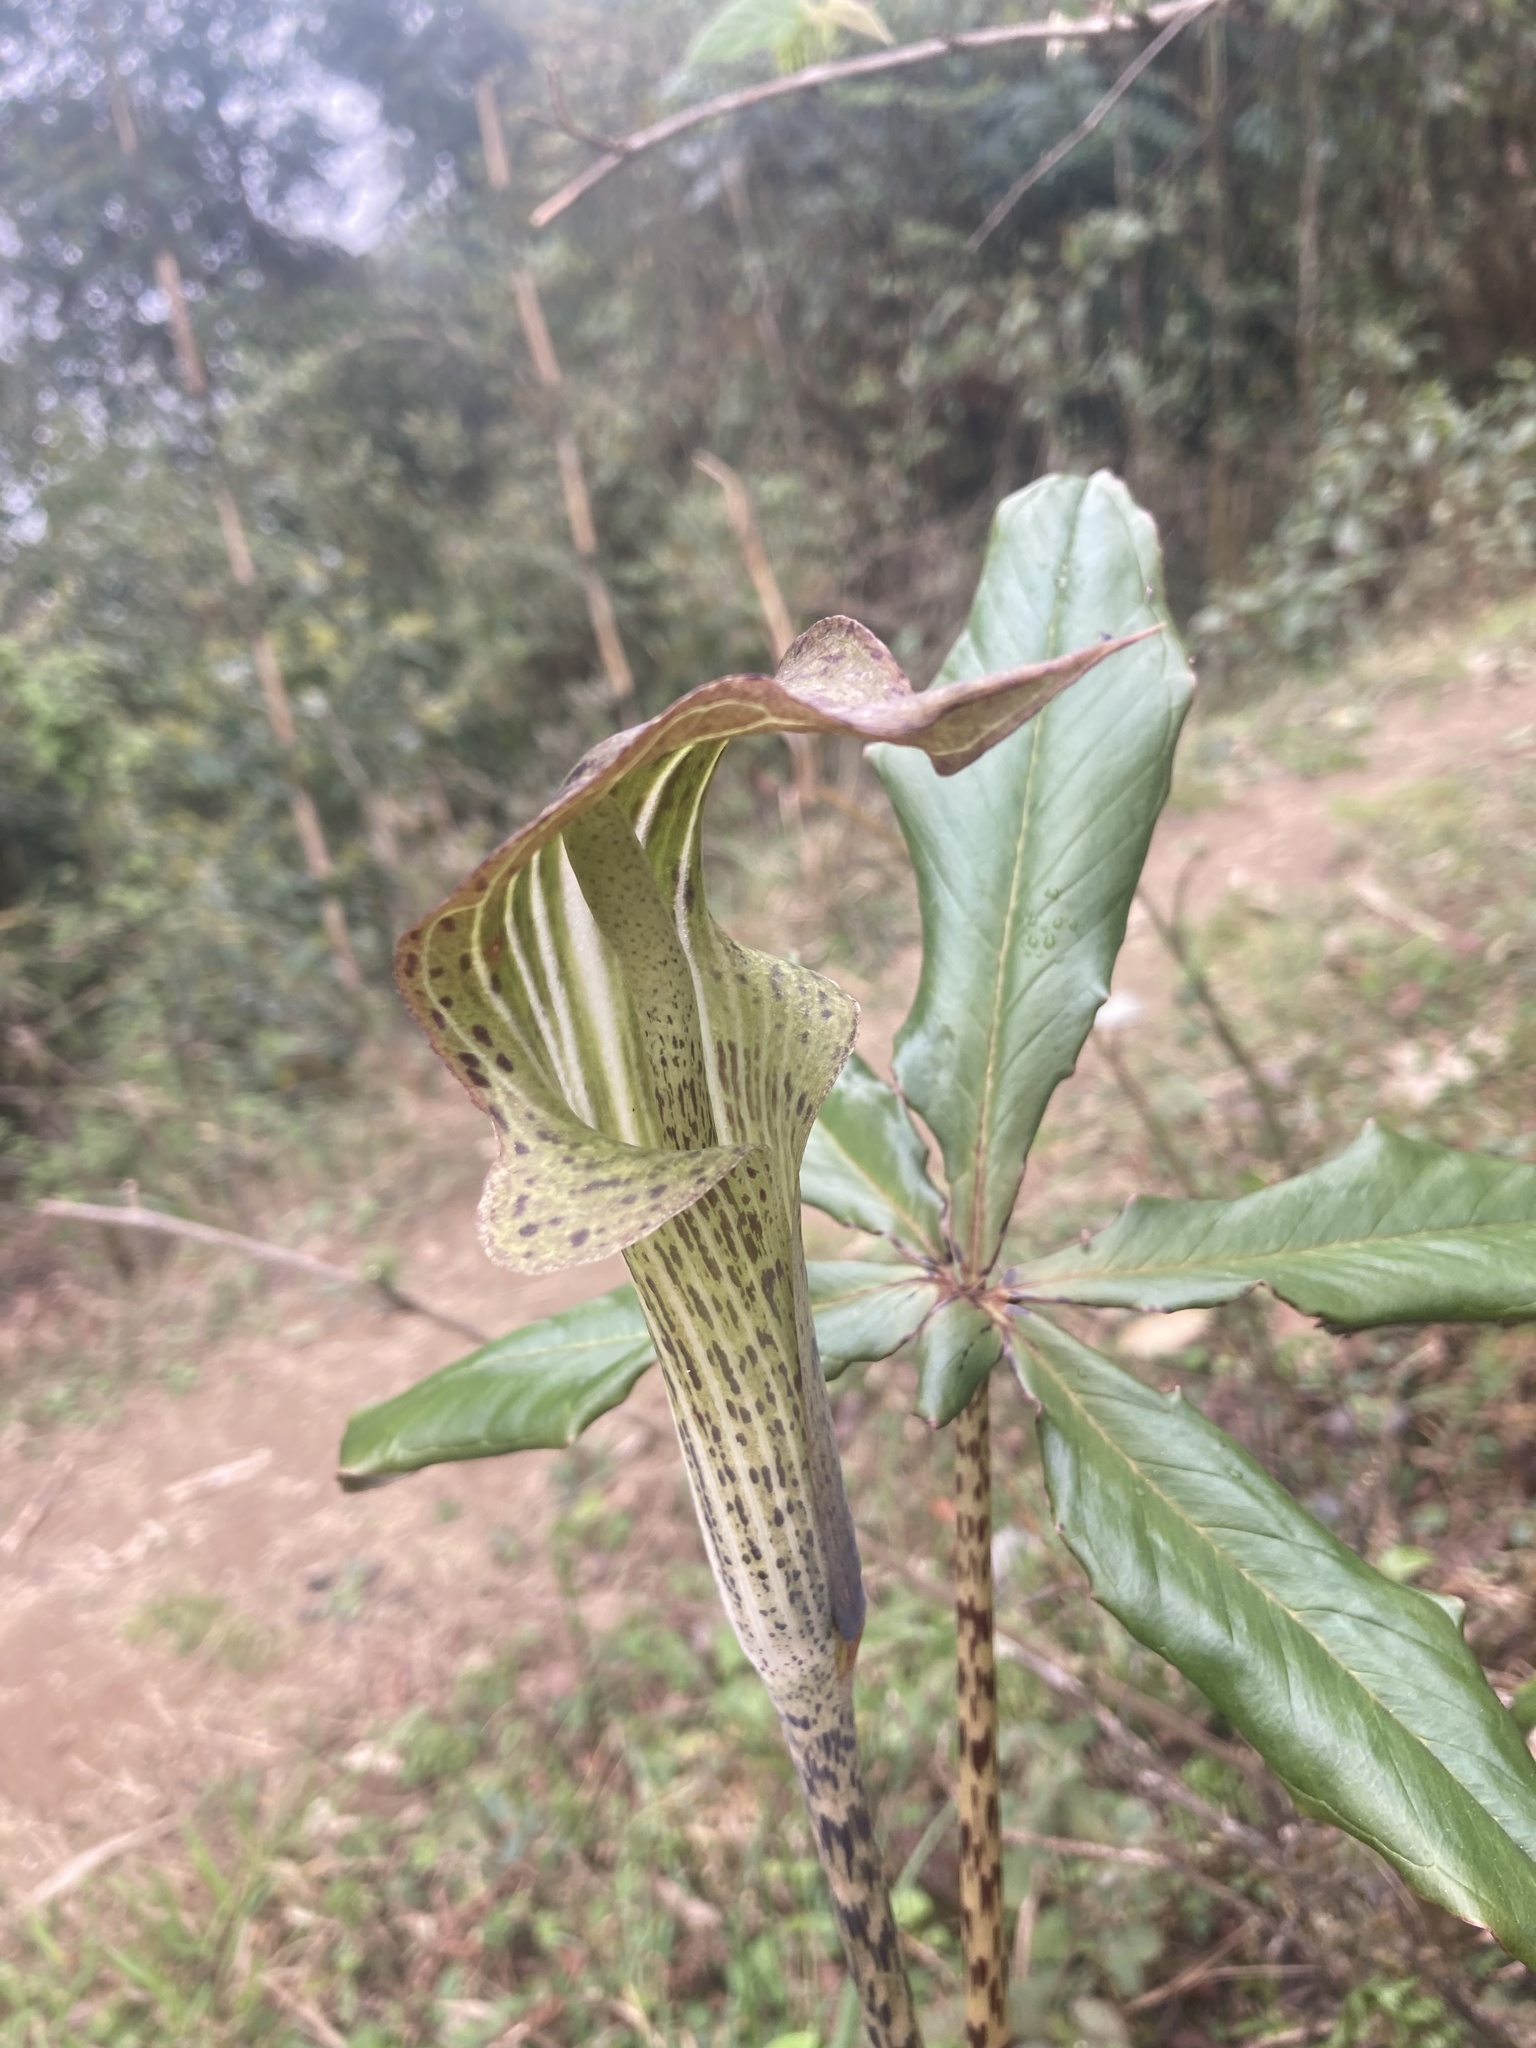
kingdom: Plantae
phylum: Tracheophyta
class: Liliopsida
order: Alismatales
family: Araceae
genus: Arisaema
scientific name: Arisaema nepenthoides
